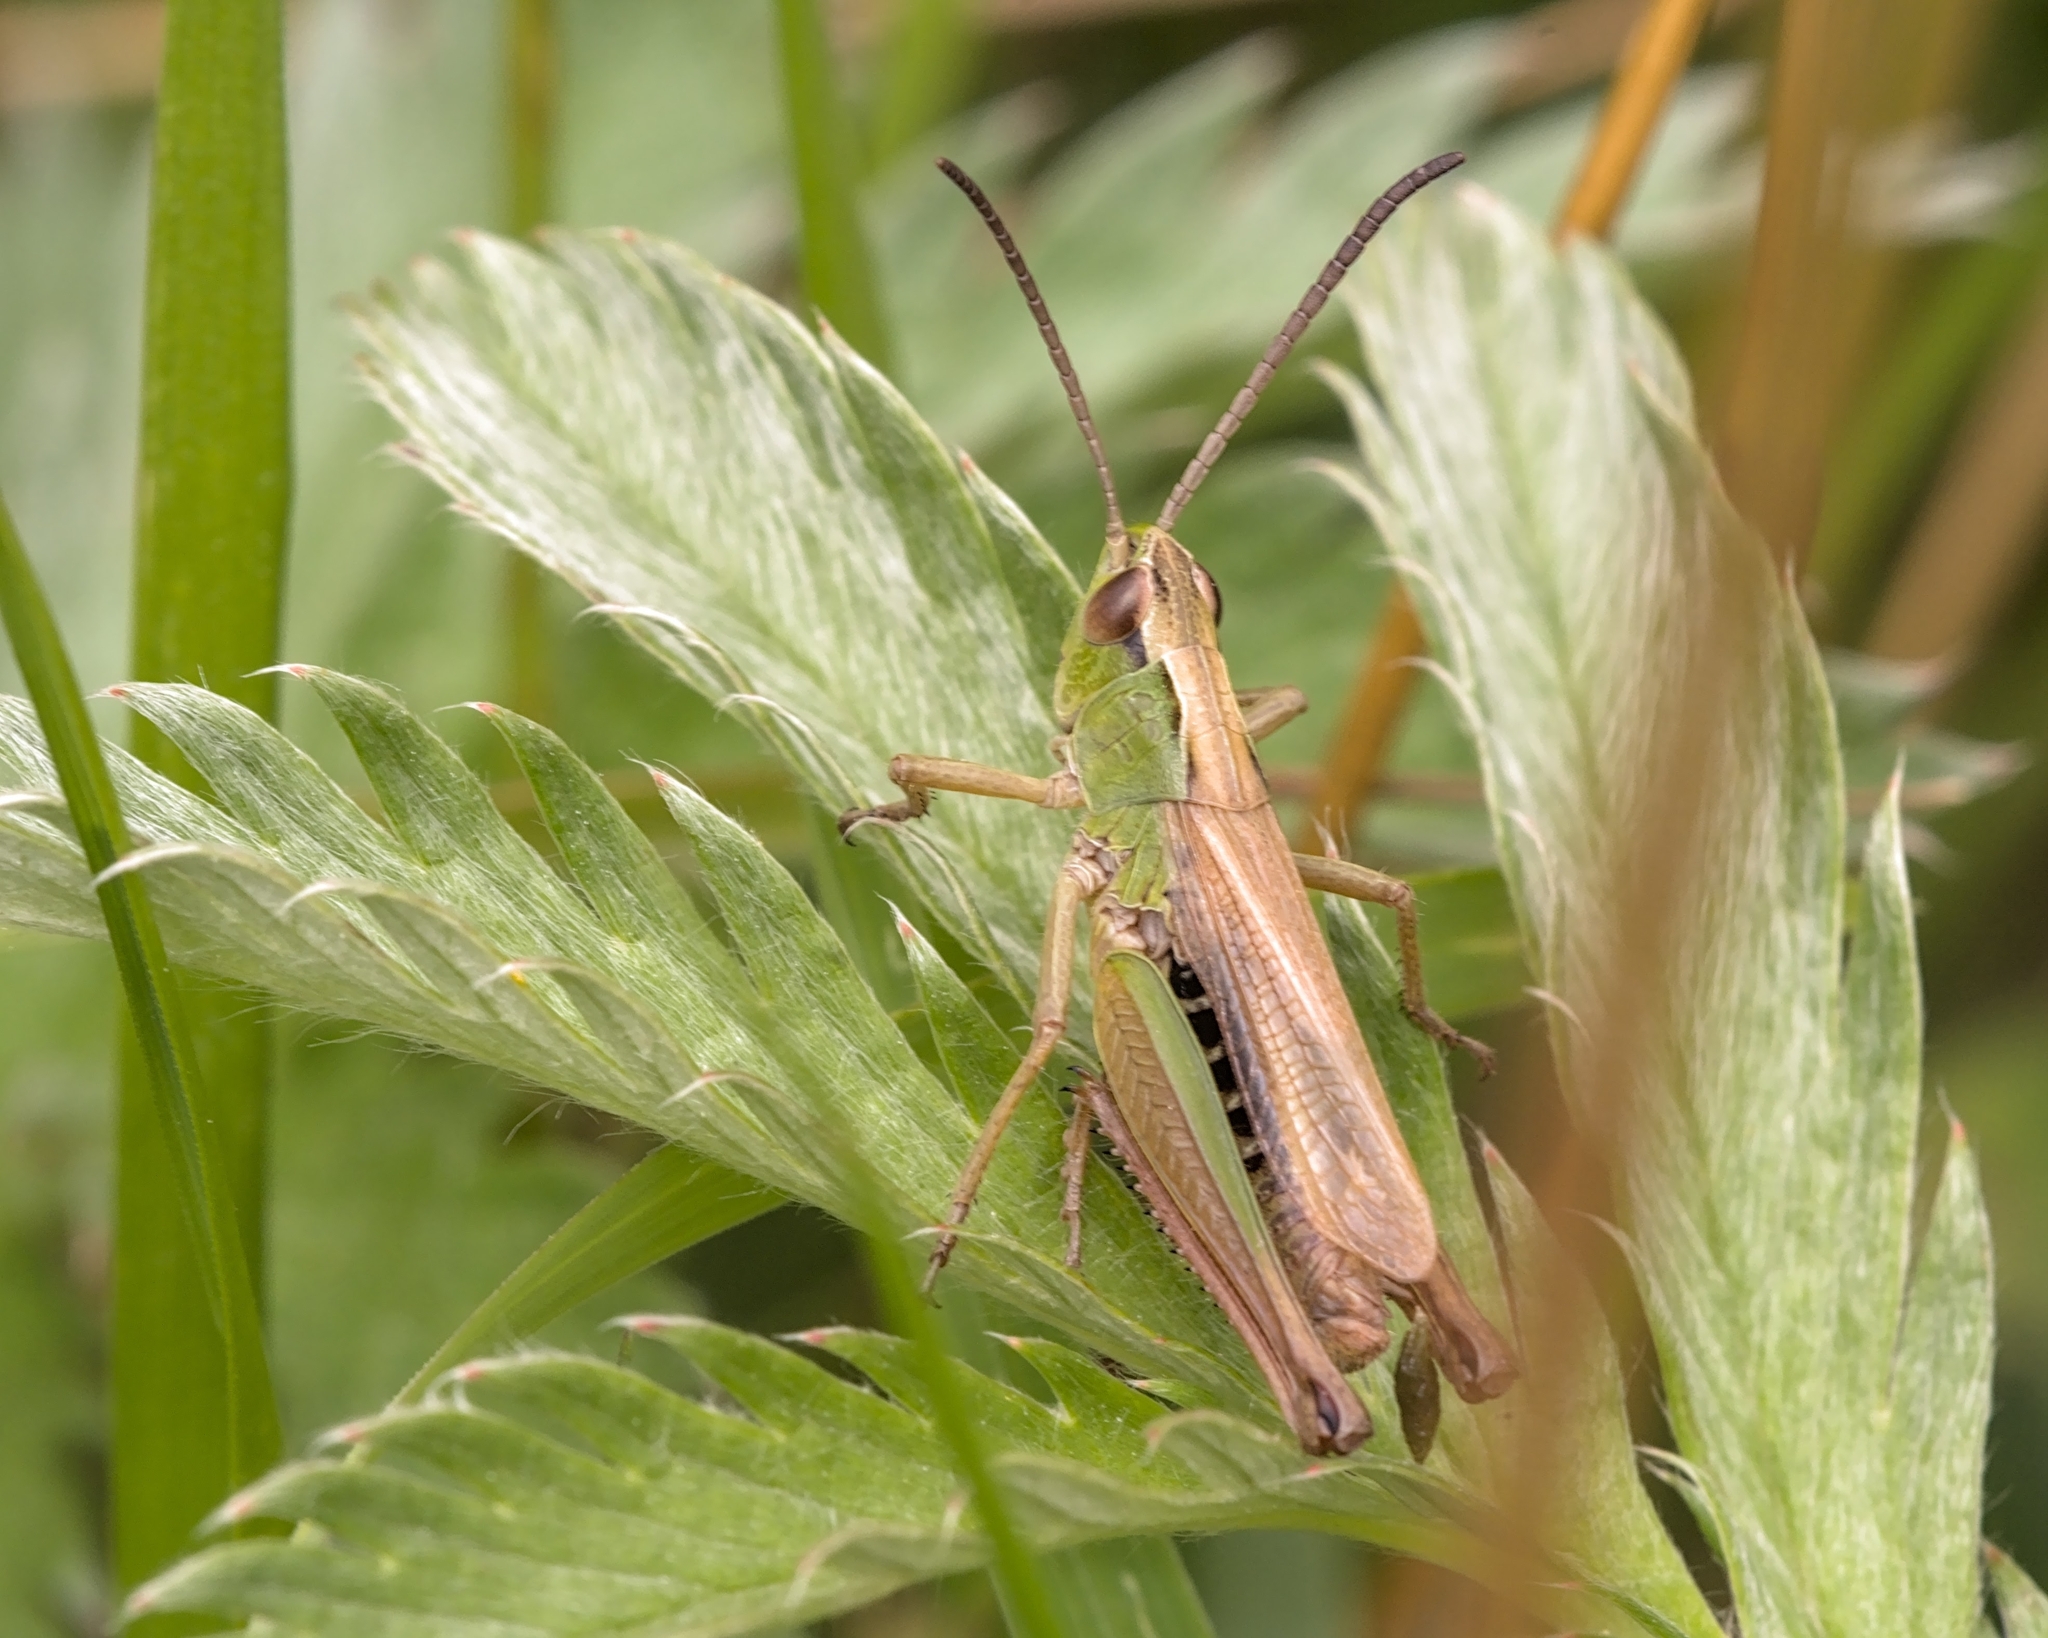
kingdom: Animalia
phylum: Arthropoda
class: Insecta
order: Orthoptera
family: Acrididae
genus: Pseudochorthippus
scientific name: Pseudochorthippus parallelus
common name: Meadow grasshopper
